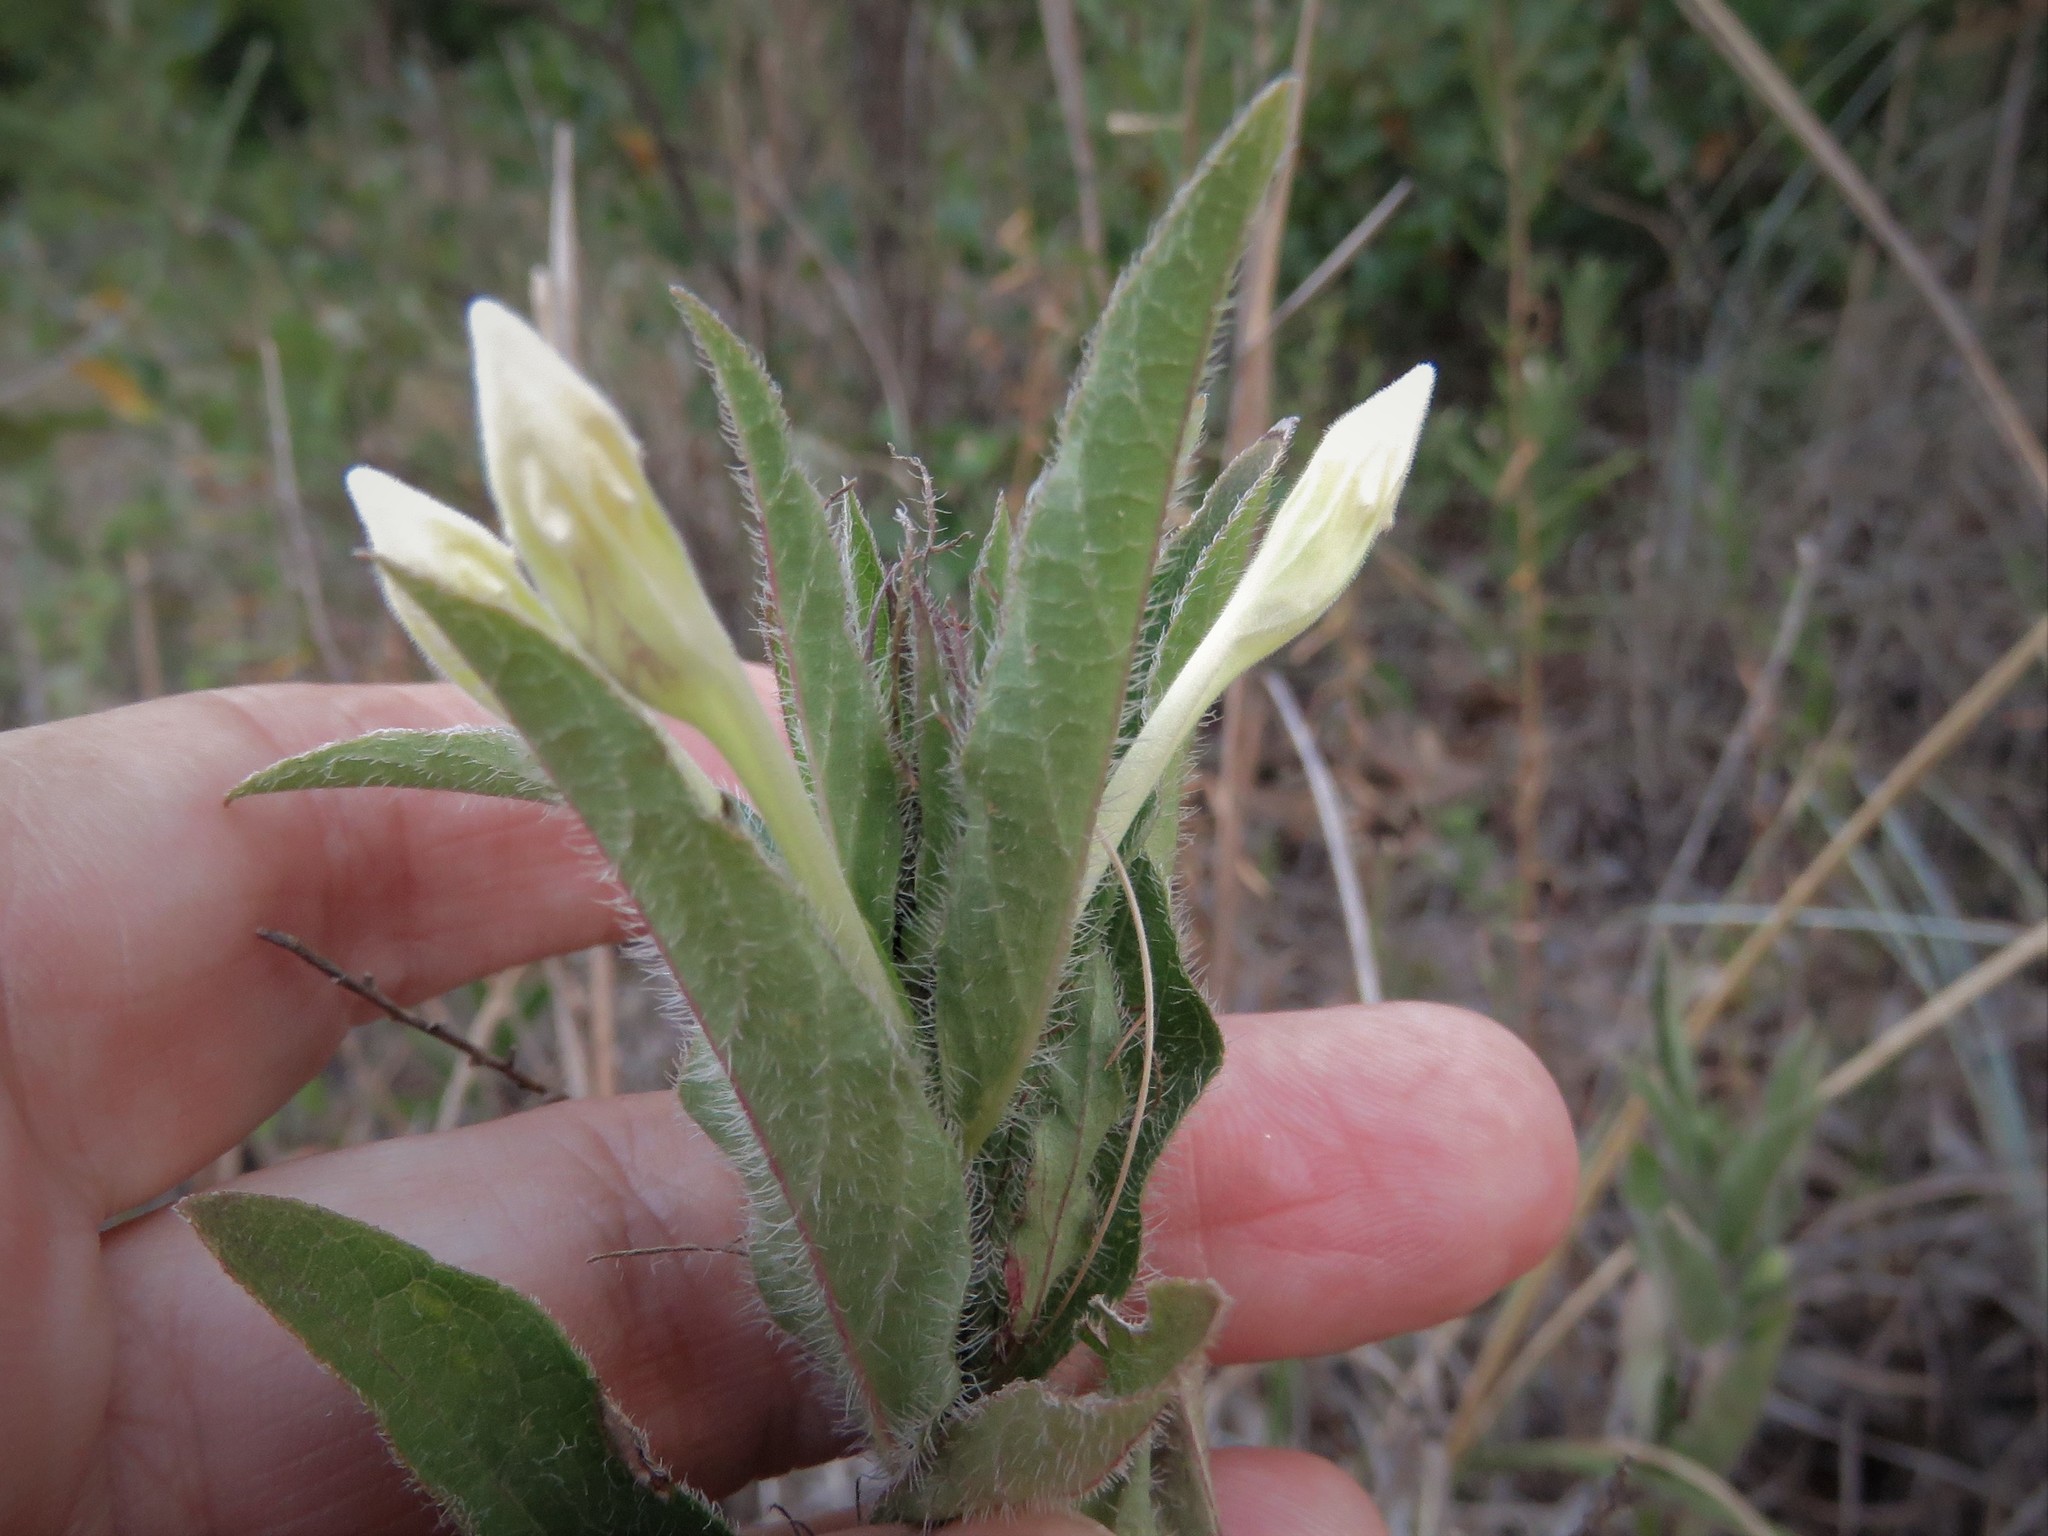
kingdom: Plantae
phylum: Tracheophyta
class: Magnoliopsida
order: Lamiales
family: Acanthaceae
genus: Ruellia
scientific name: Ruellia humilis
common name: Fringe-leaf ruellia
